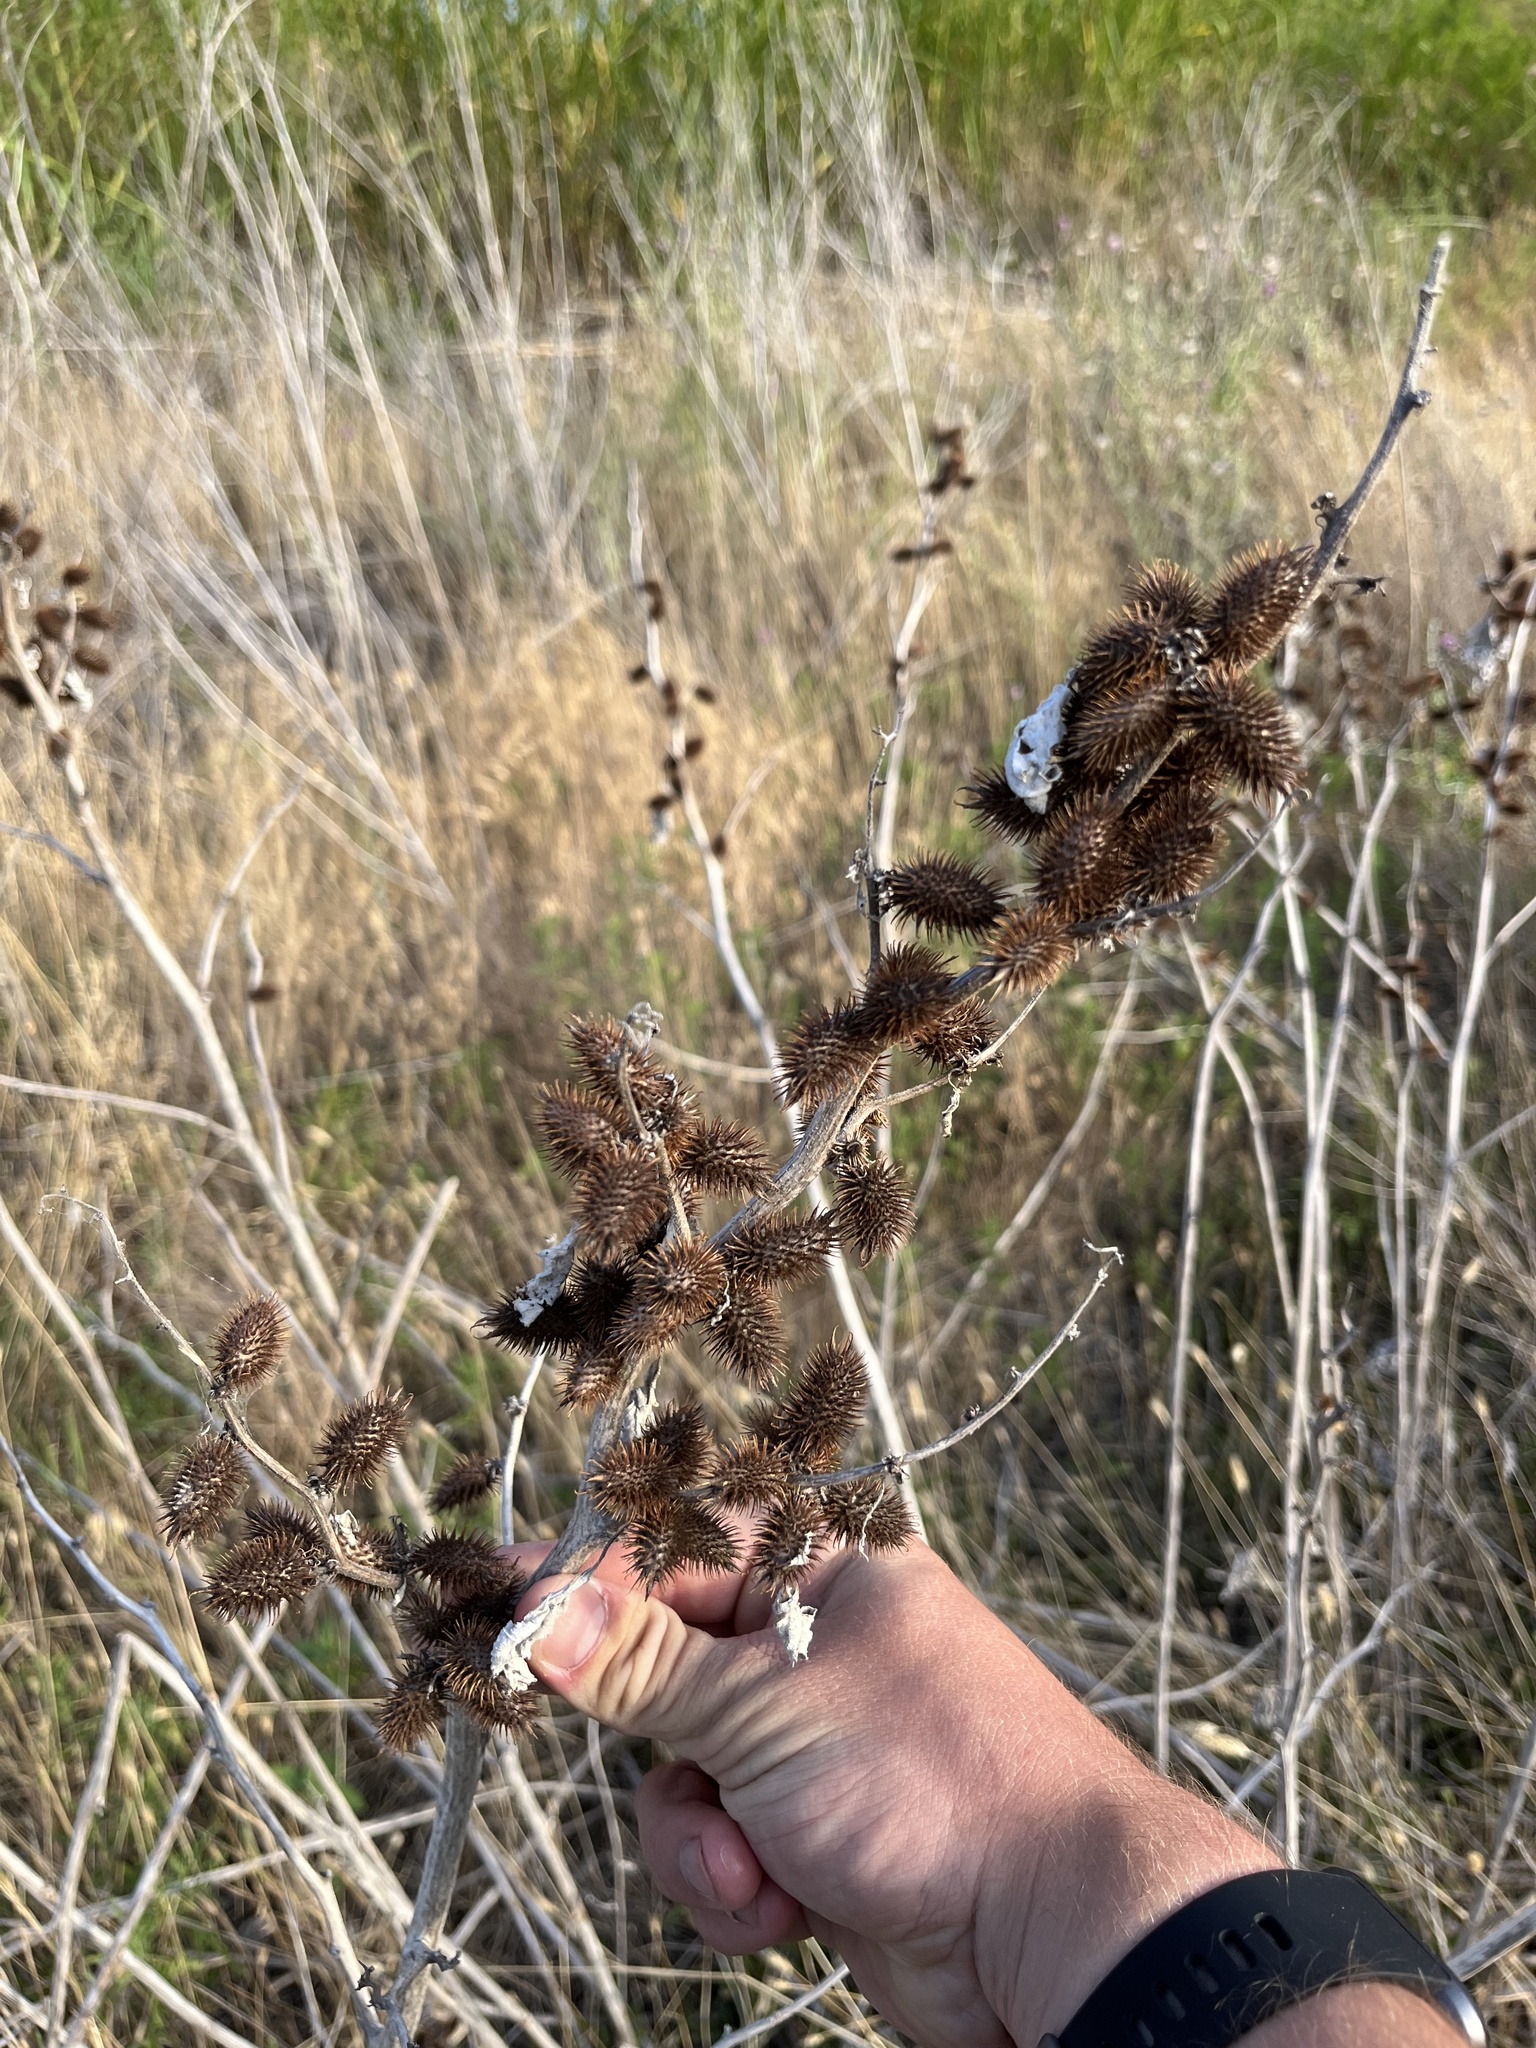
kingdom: Plantae
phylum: Tracheophyta
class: Magnoliopsida
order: Asterales
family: Asteraceae
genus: Xanthium
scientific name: Xanthium strumarium
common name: Rough cocklebur
